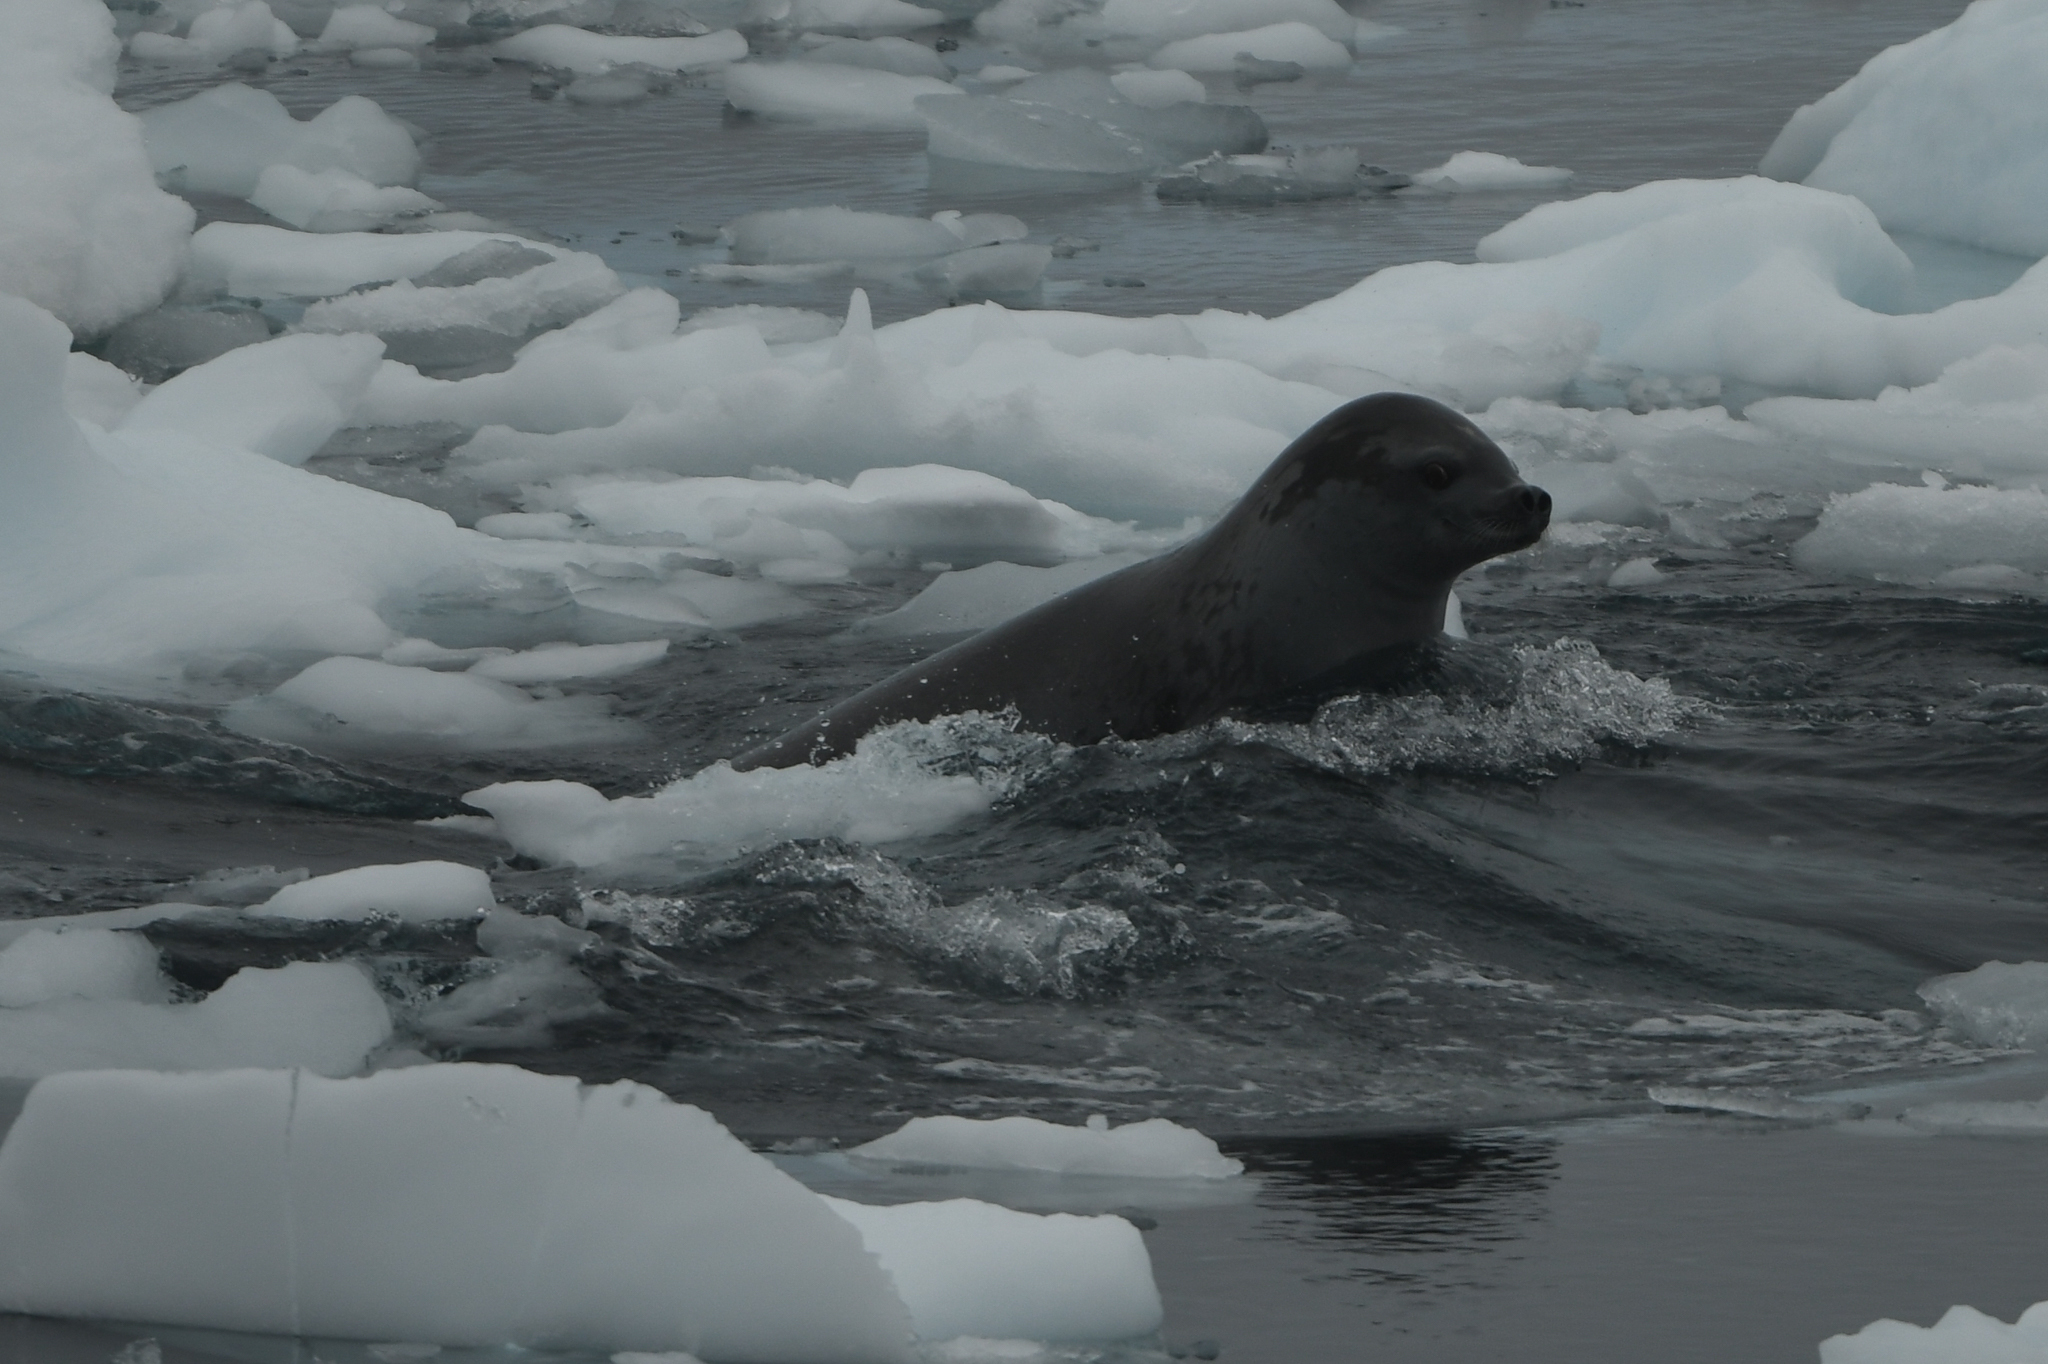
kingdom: Animalia
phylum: Chordata
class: Mammalia
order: Carnivora
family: Phocidae
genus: Lobodon
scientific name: Lobodon carcinophaga
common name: Crabeater seal
